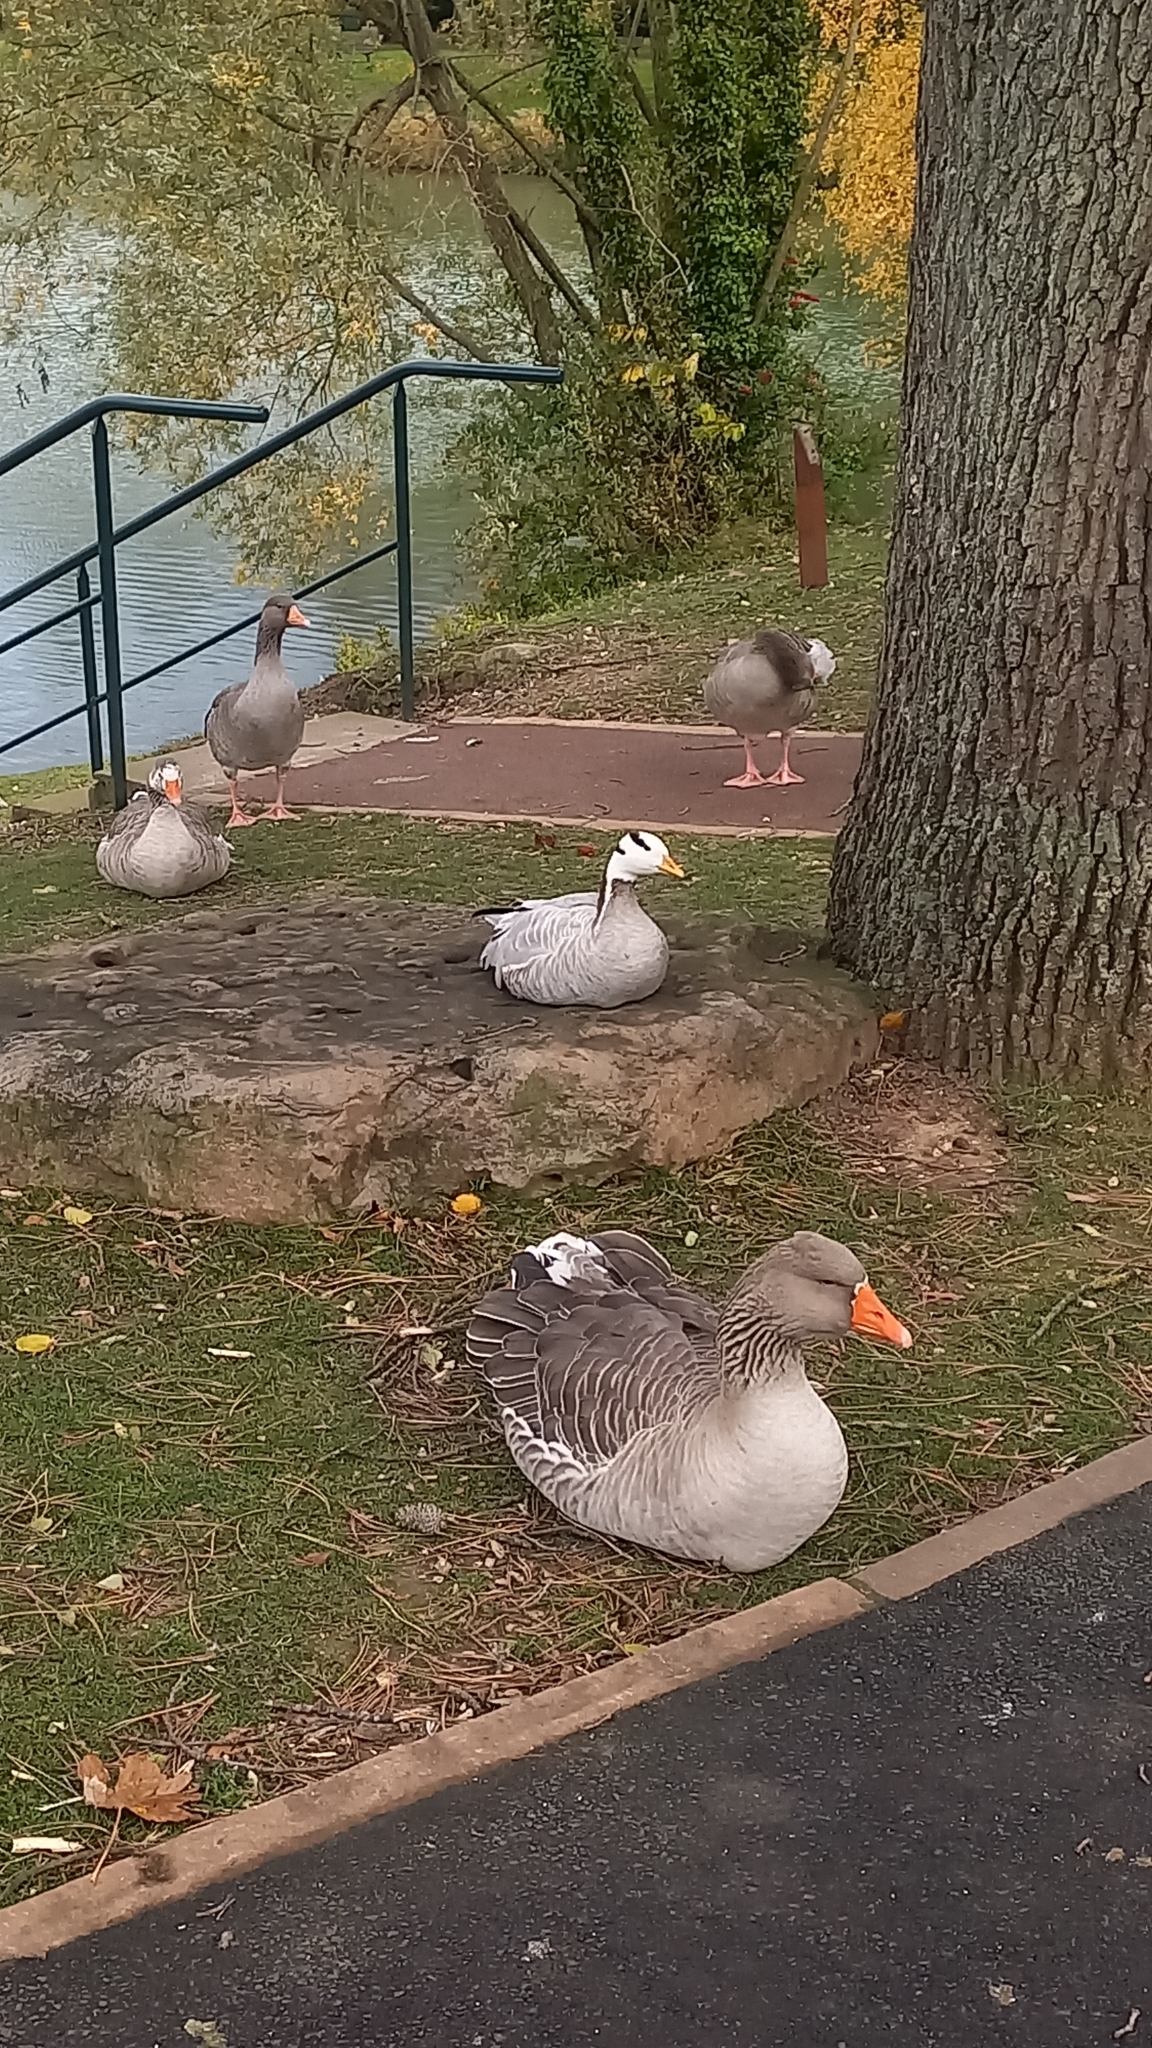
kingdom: Animalia
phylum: Chordata
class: Aves
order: Anseriformes
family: Anatidae
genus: Anser
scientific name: Anser indicus
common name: Bar-headed goose
